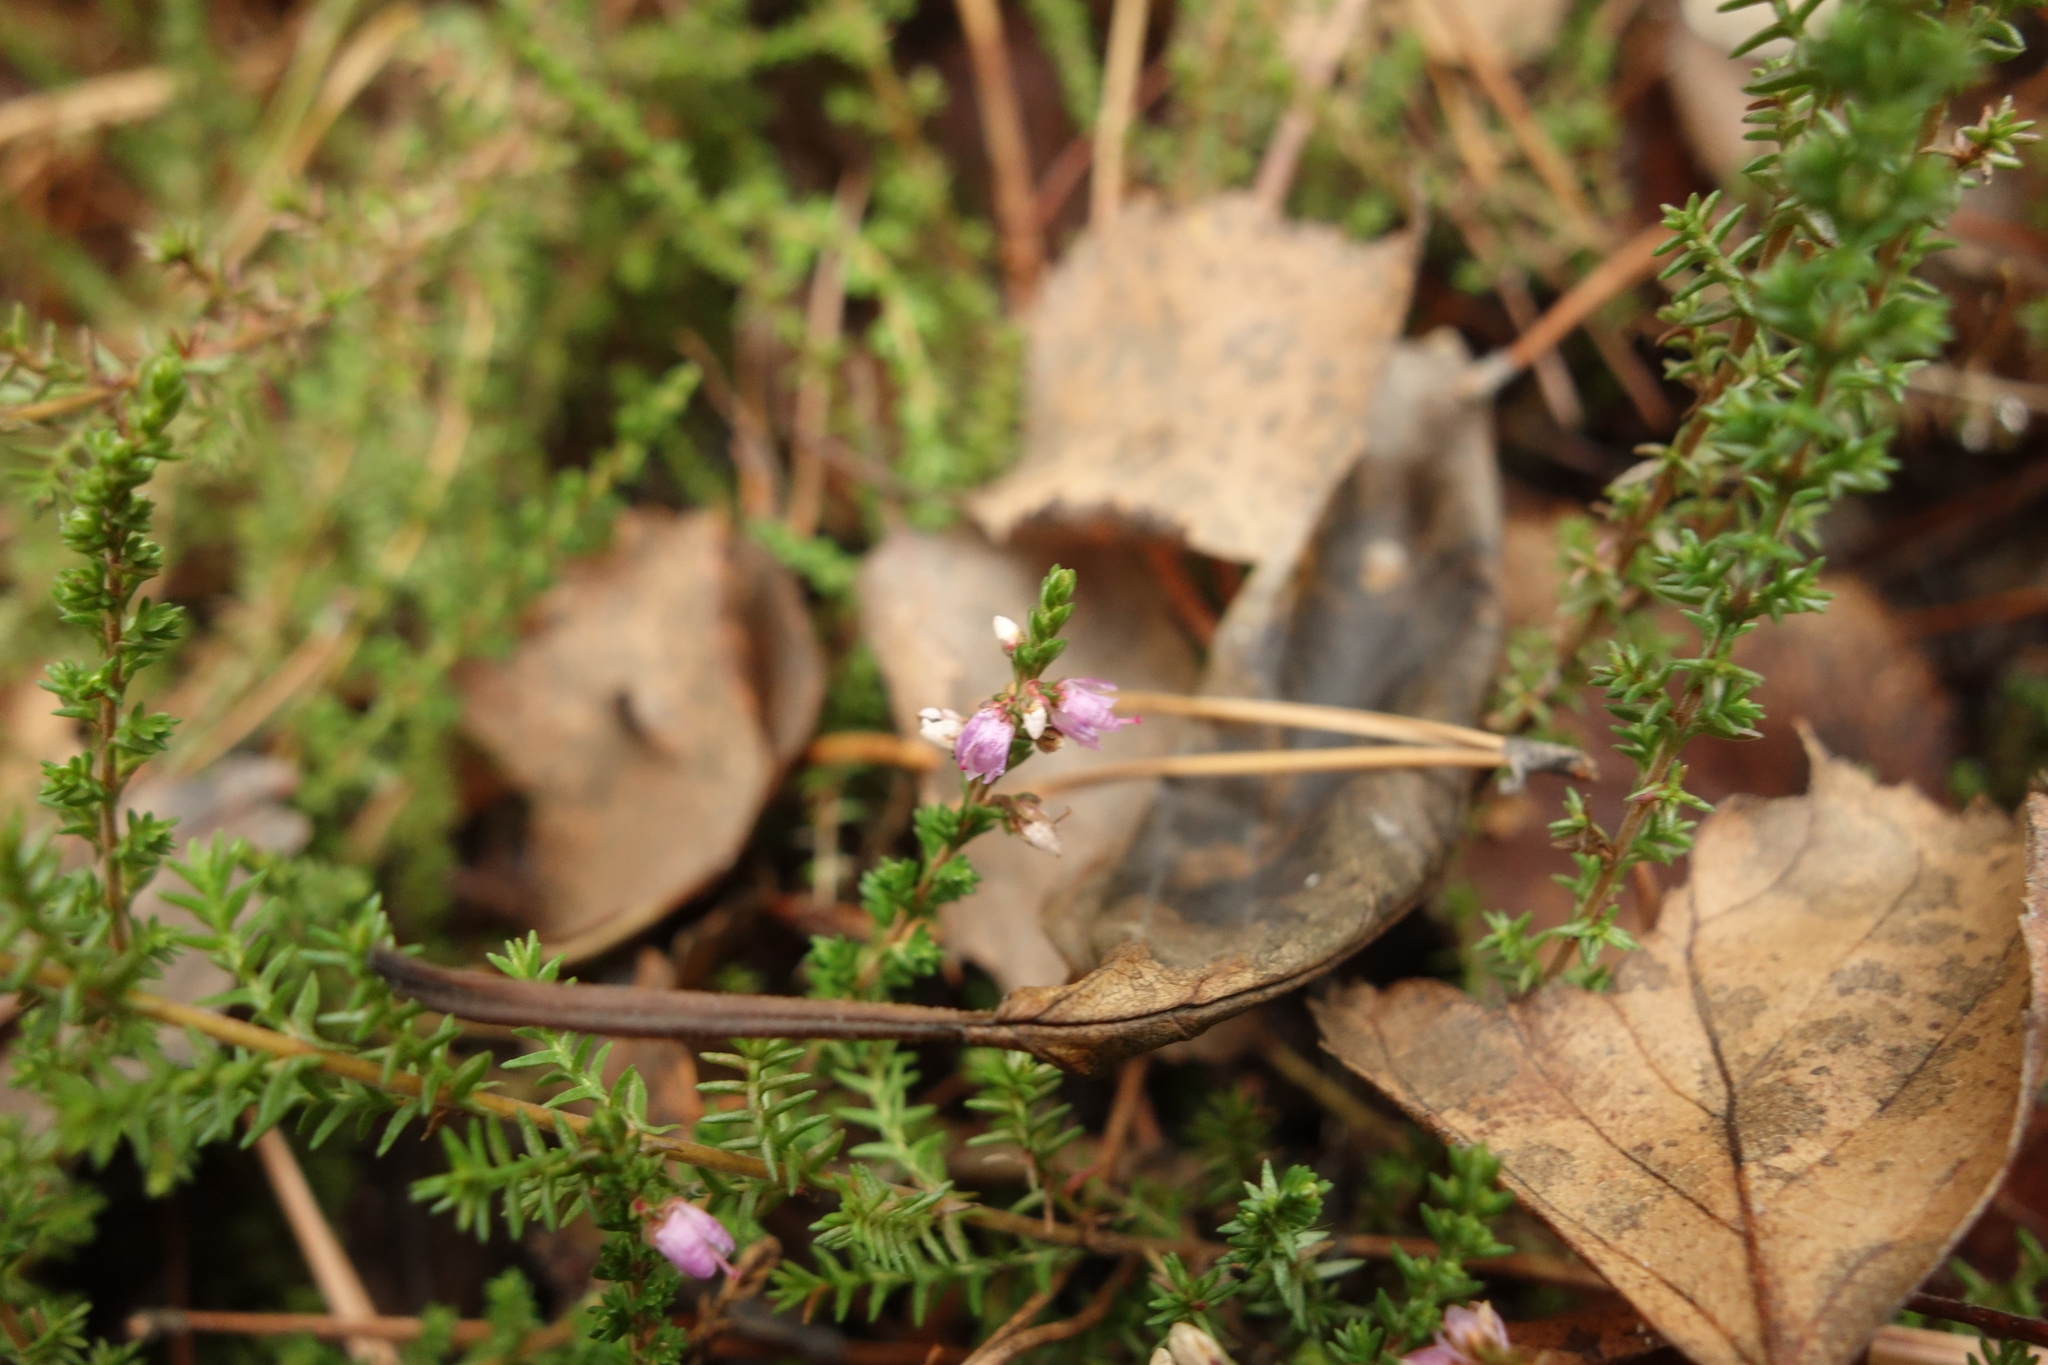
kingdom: Plantae
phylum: Tracheophyta
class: Magnoliopsida
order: Ericales
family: Ericaceae
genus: Calluna
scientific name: Calluna vulgaris
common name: Heather
